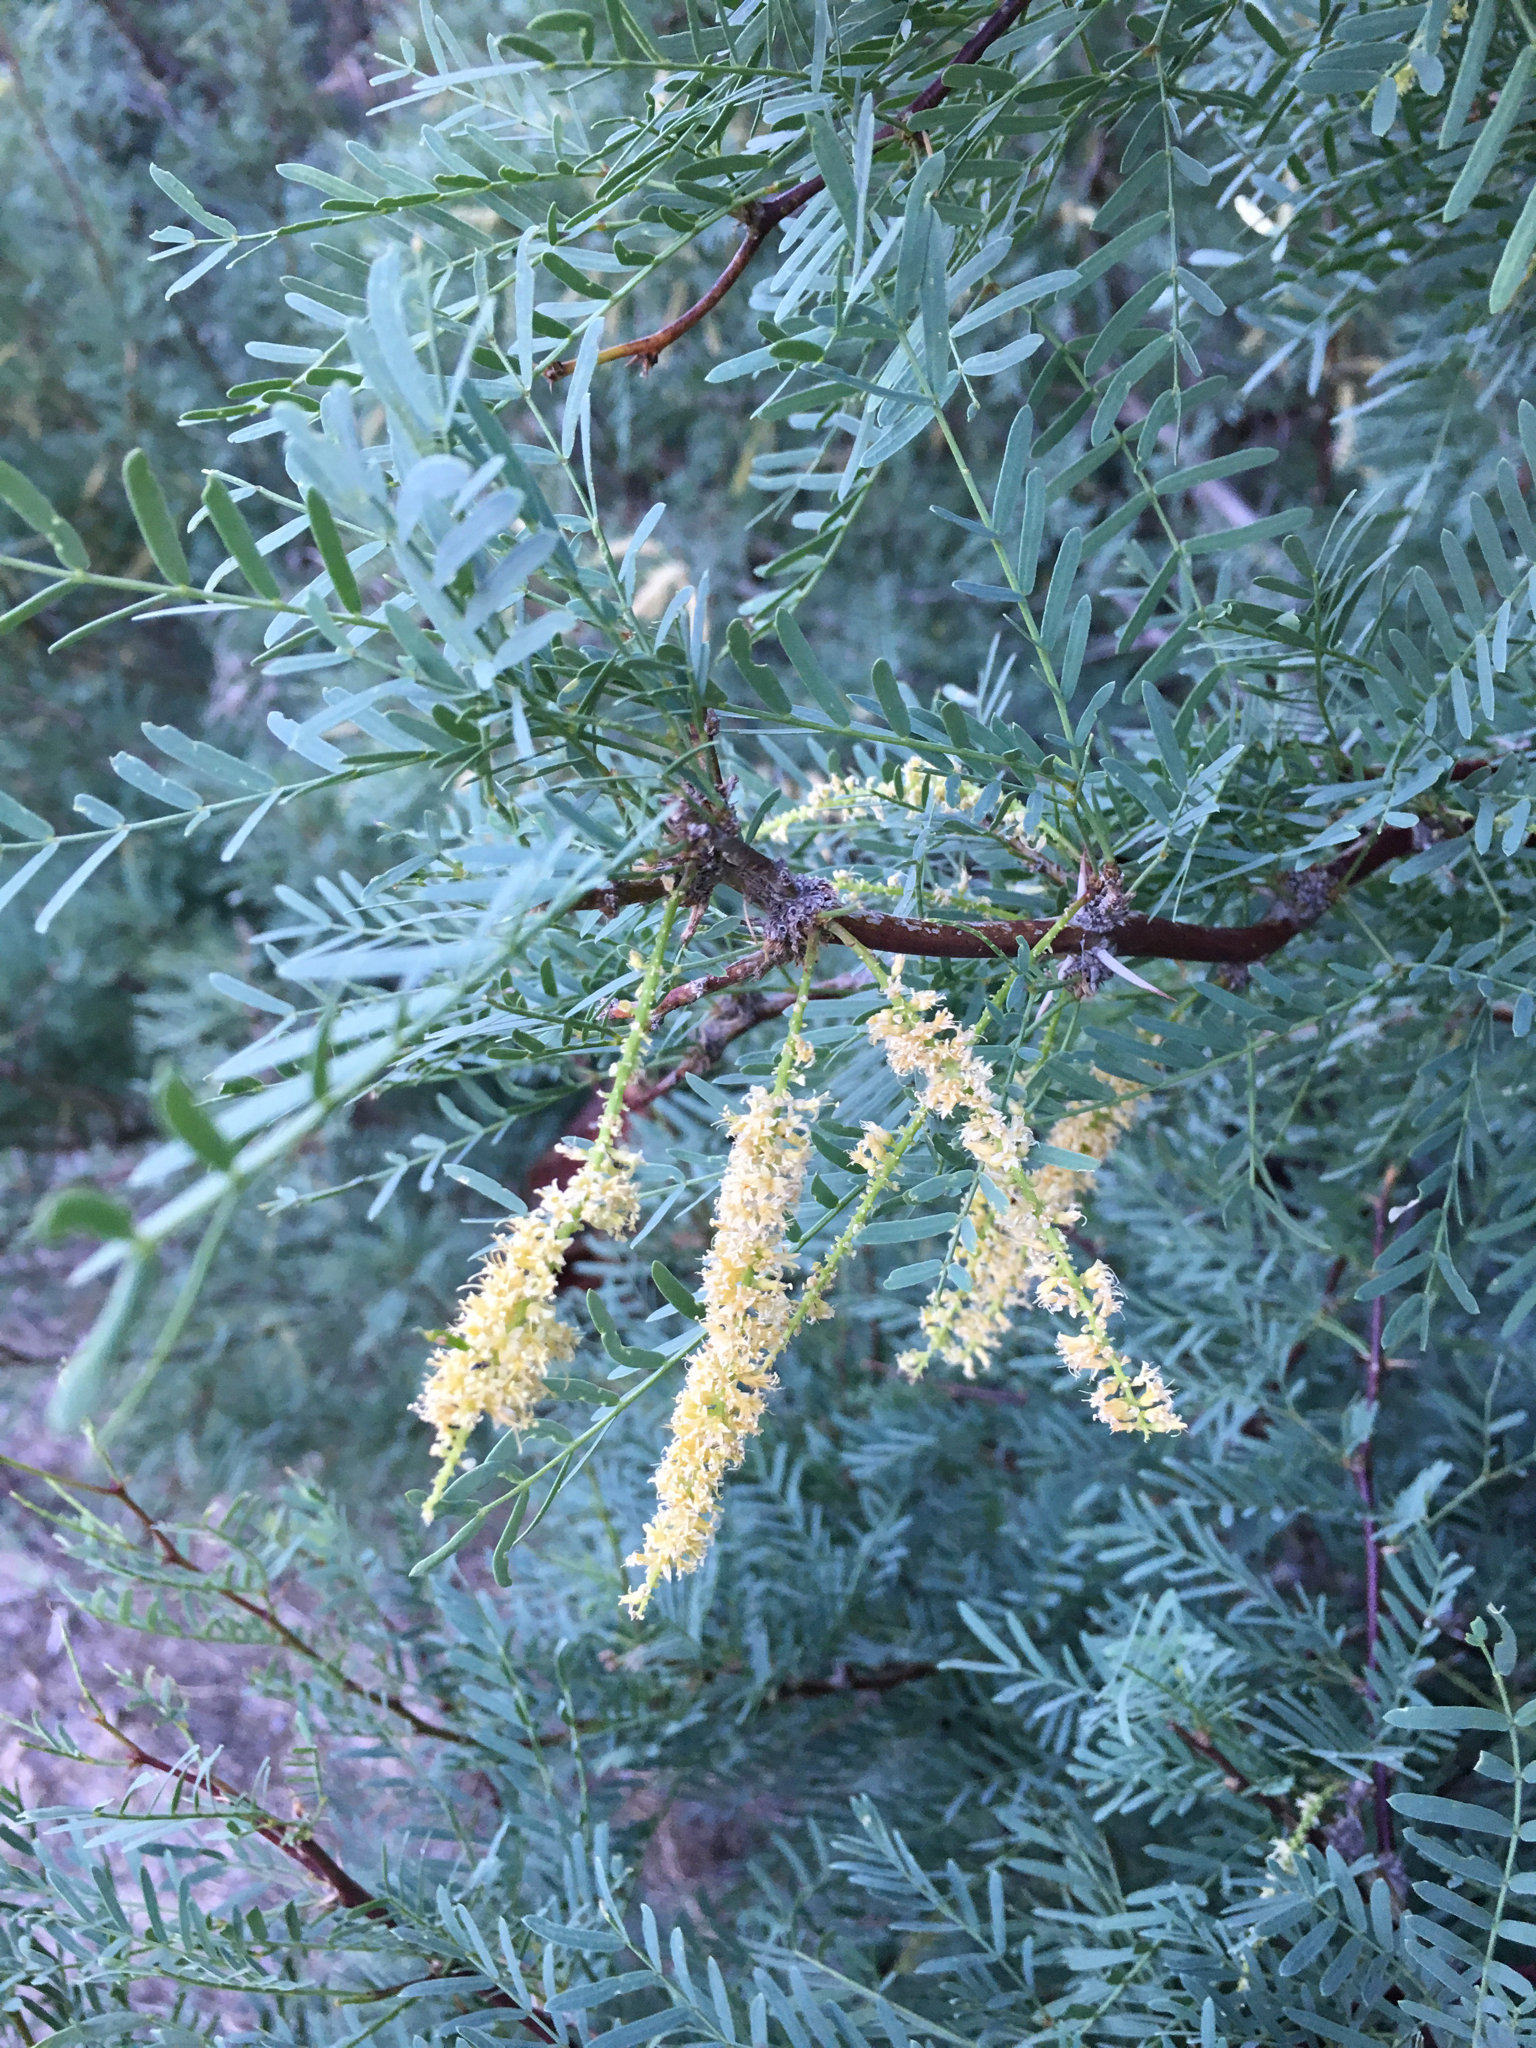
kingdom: Plantae
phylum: Tracheophyta
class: Magnoliopsida
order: Fabales
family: Fabaceae
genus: Prosopis
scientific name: Prosopis glandulosa
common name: Honey mesquite
